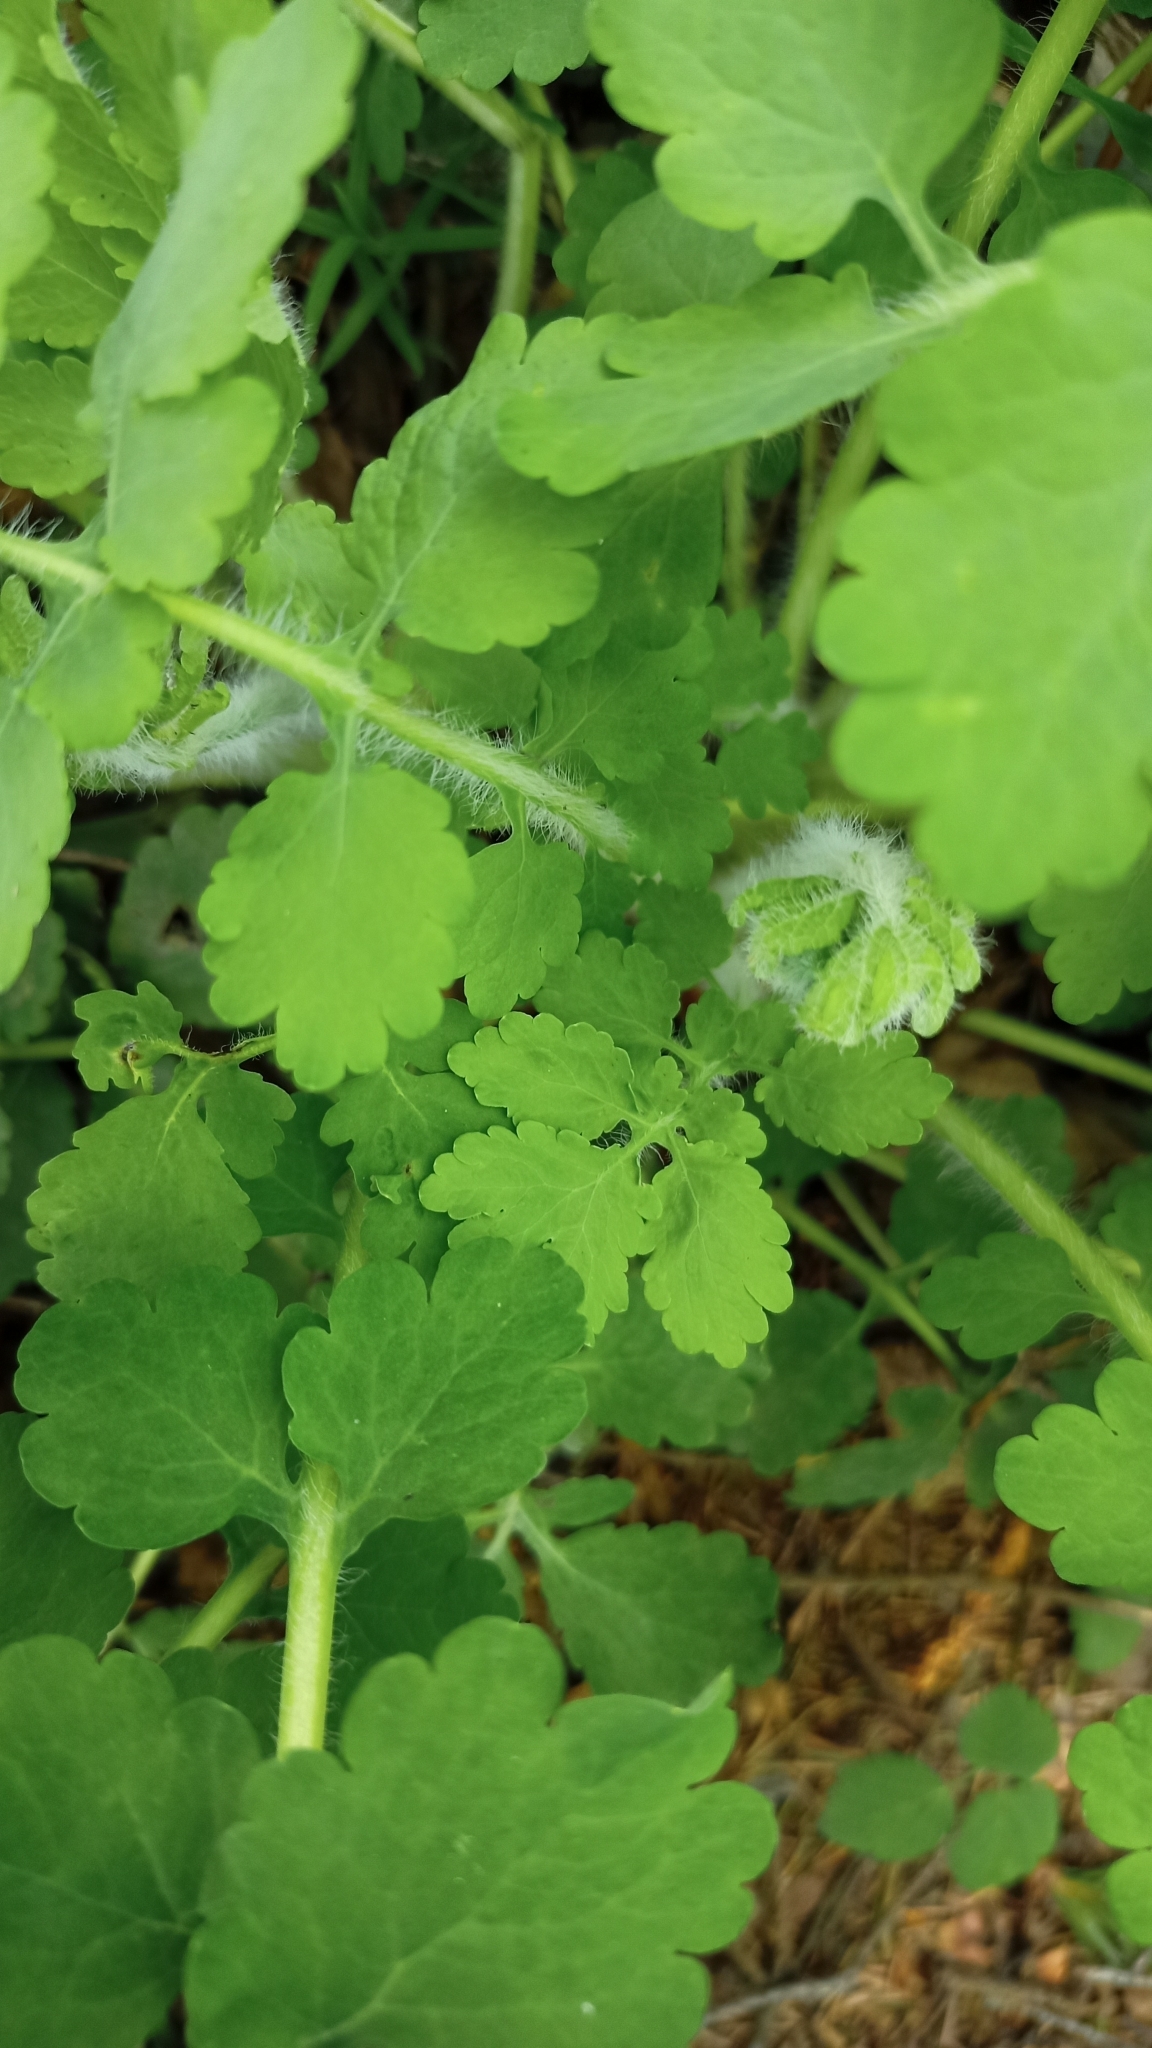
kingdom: Plantae
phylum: Tracheophyta
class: Magnoliopsida
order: Ranunculales
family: Papaveraceae
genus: Chelidonium
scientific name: Chelidonium majus
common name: Greater celandine
